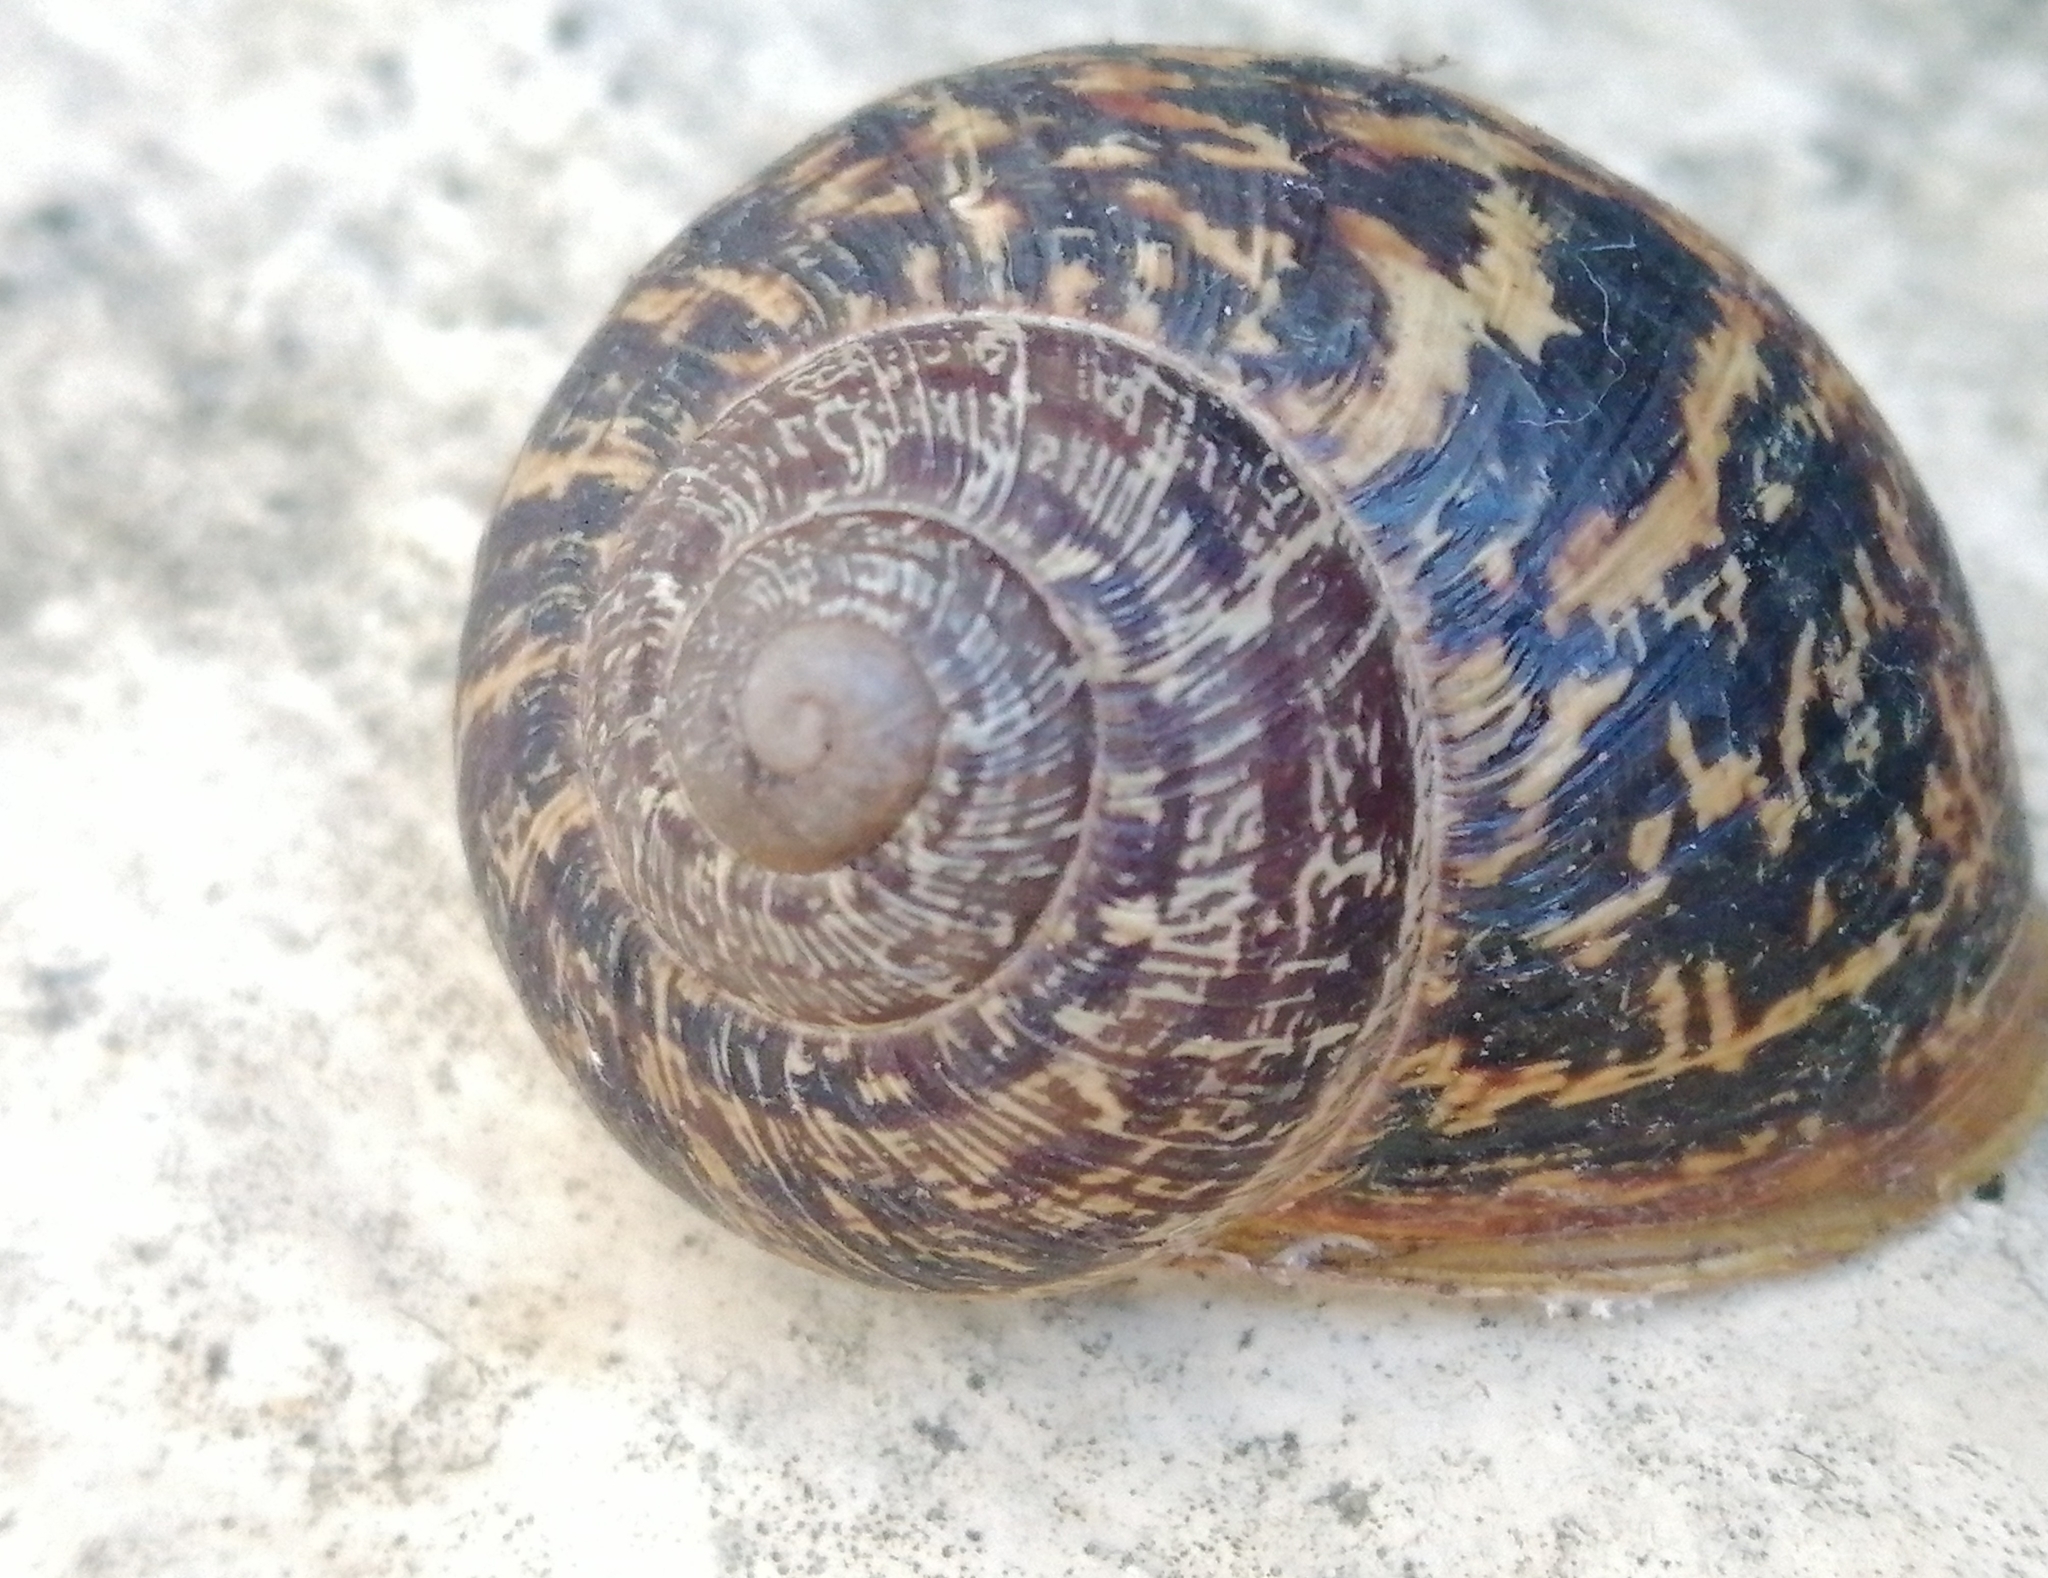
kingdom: Animalia
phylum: Mollusca
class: Gastropoda
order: Stylommatophora
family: Helicidae
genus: Cornu
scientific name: Cornu aspersum
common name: Brown garden snail
